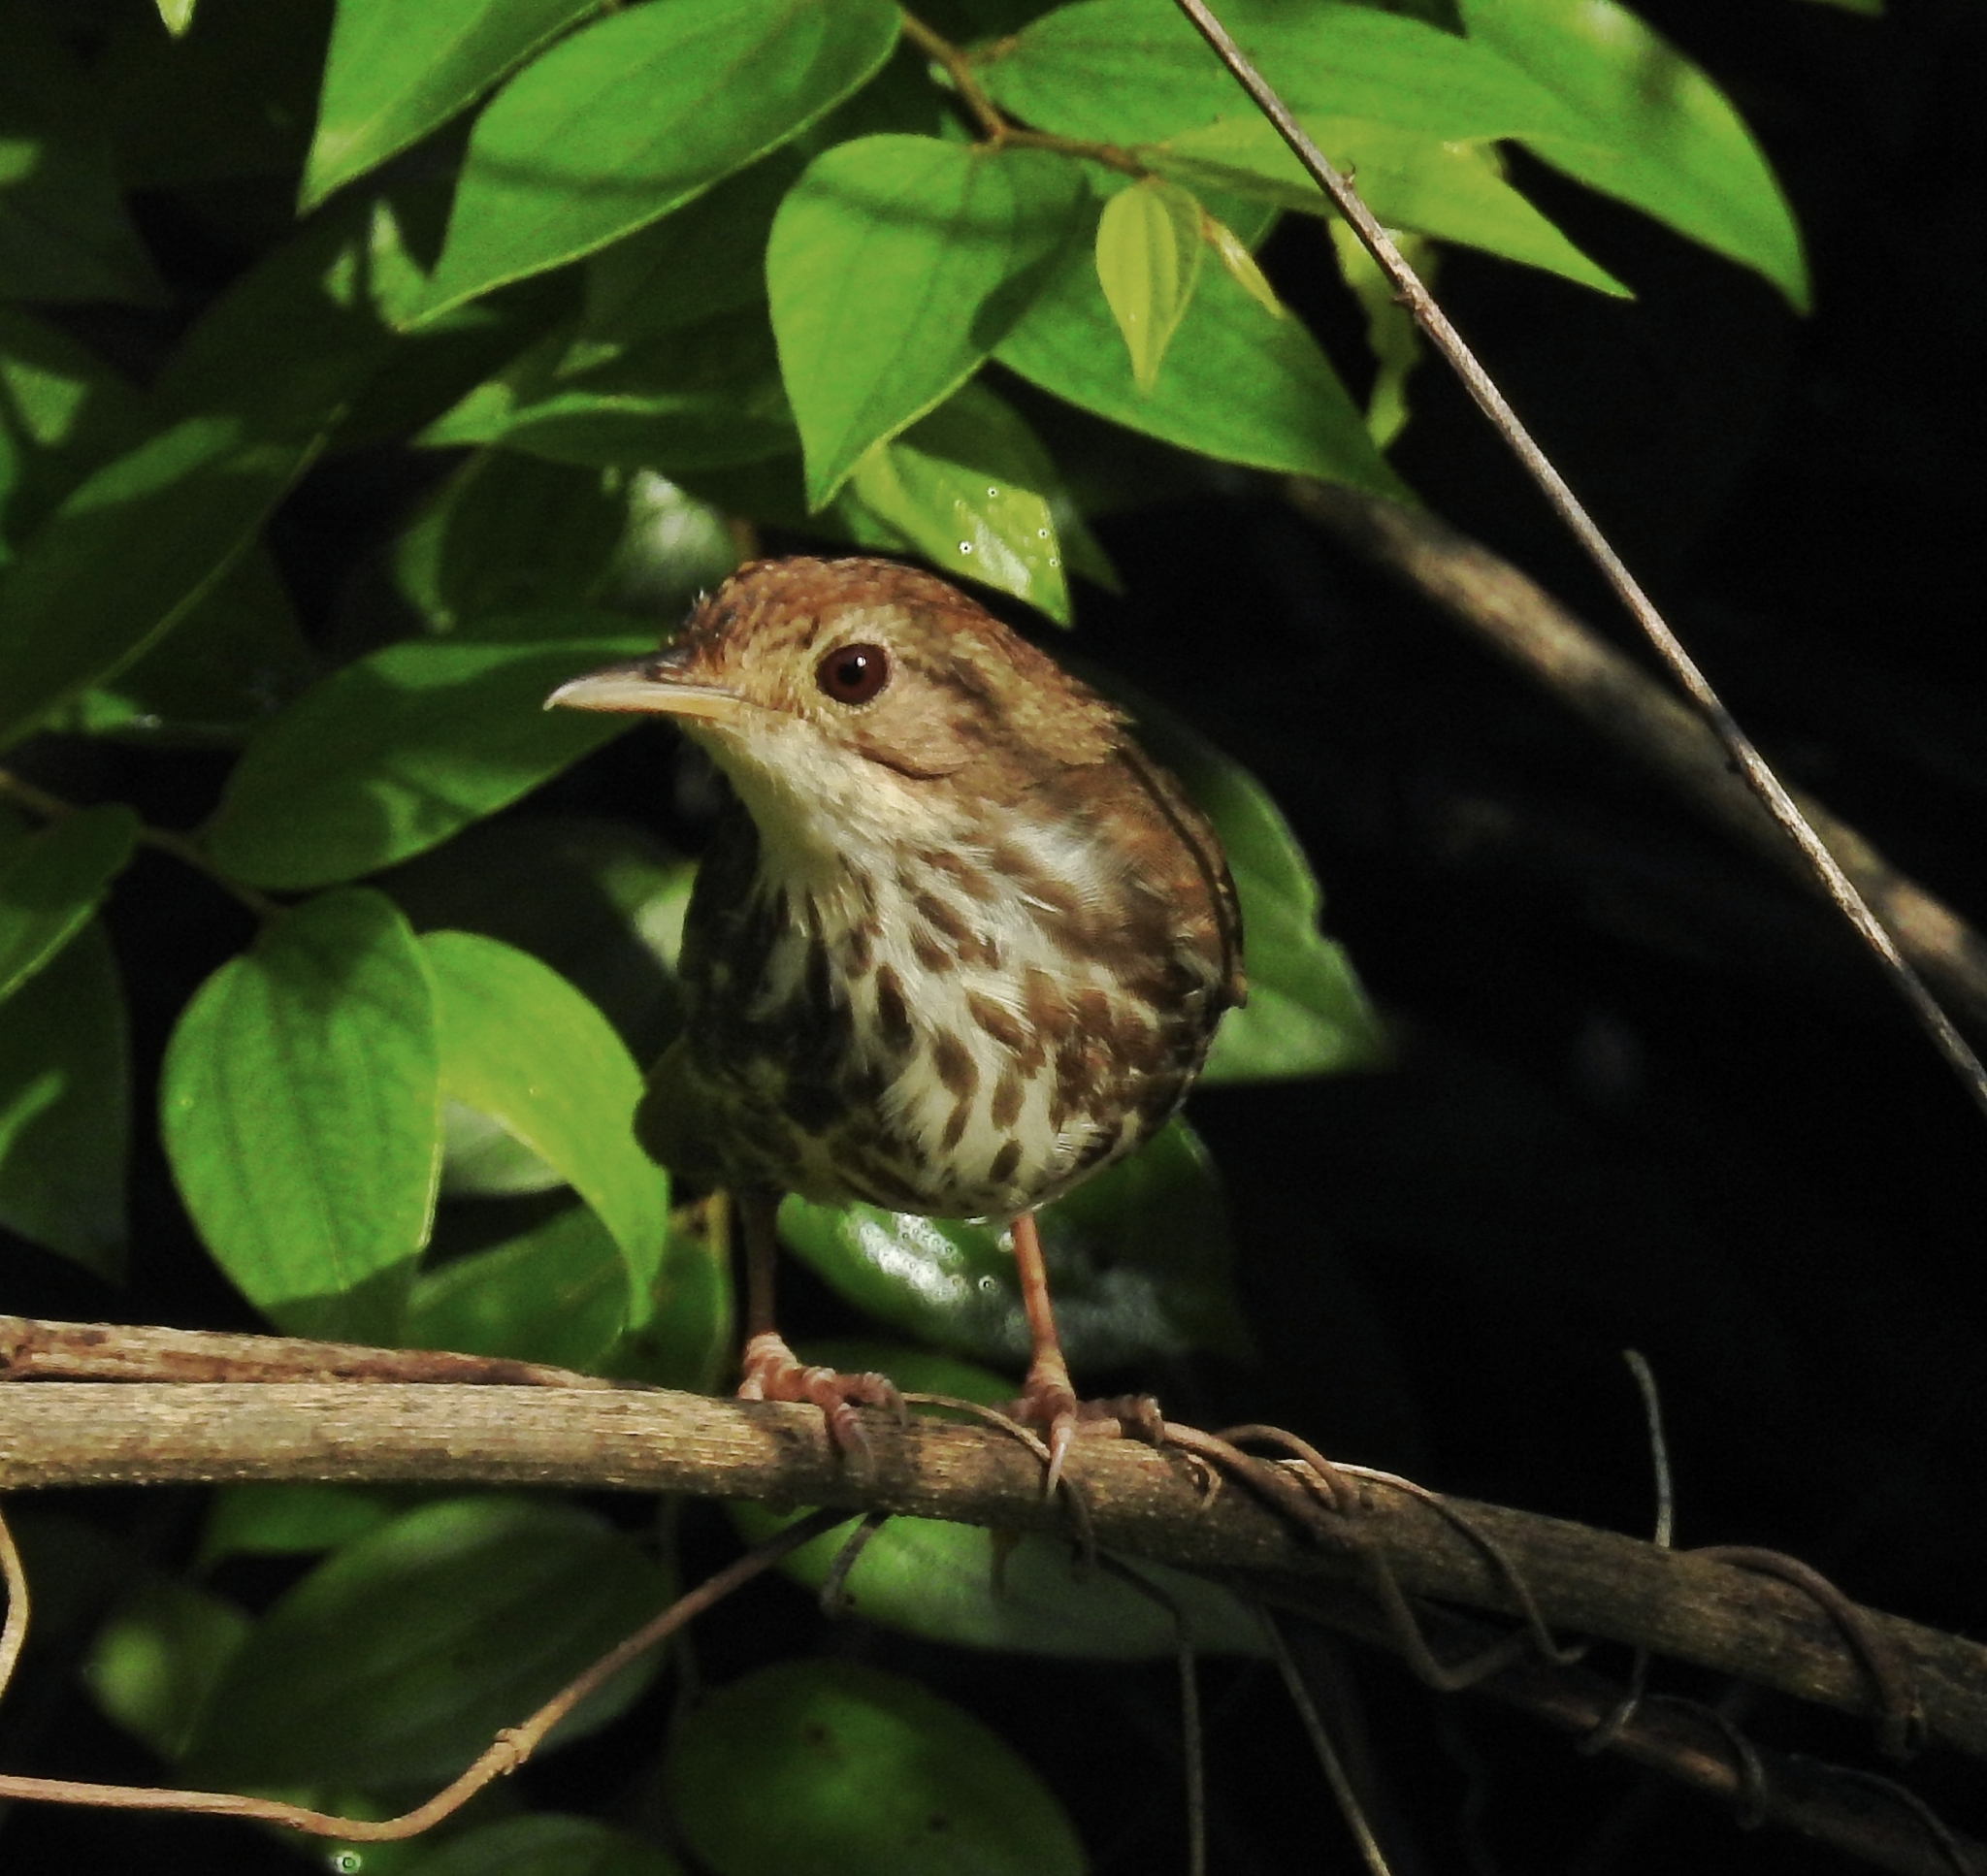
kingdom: Animalia
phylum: Chordata
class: Aves
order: Passeriformes
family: Pellorneidae
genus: Pellorneum
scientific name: Pellorneum ruficeps
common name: Puff-throated babbler
